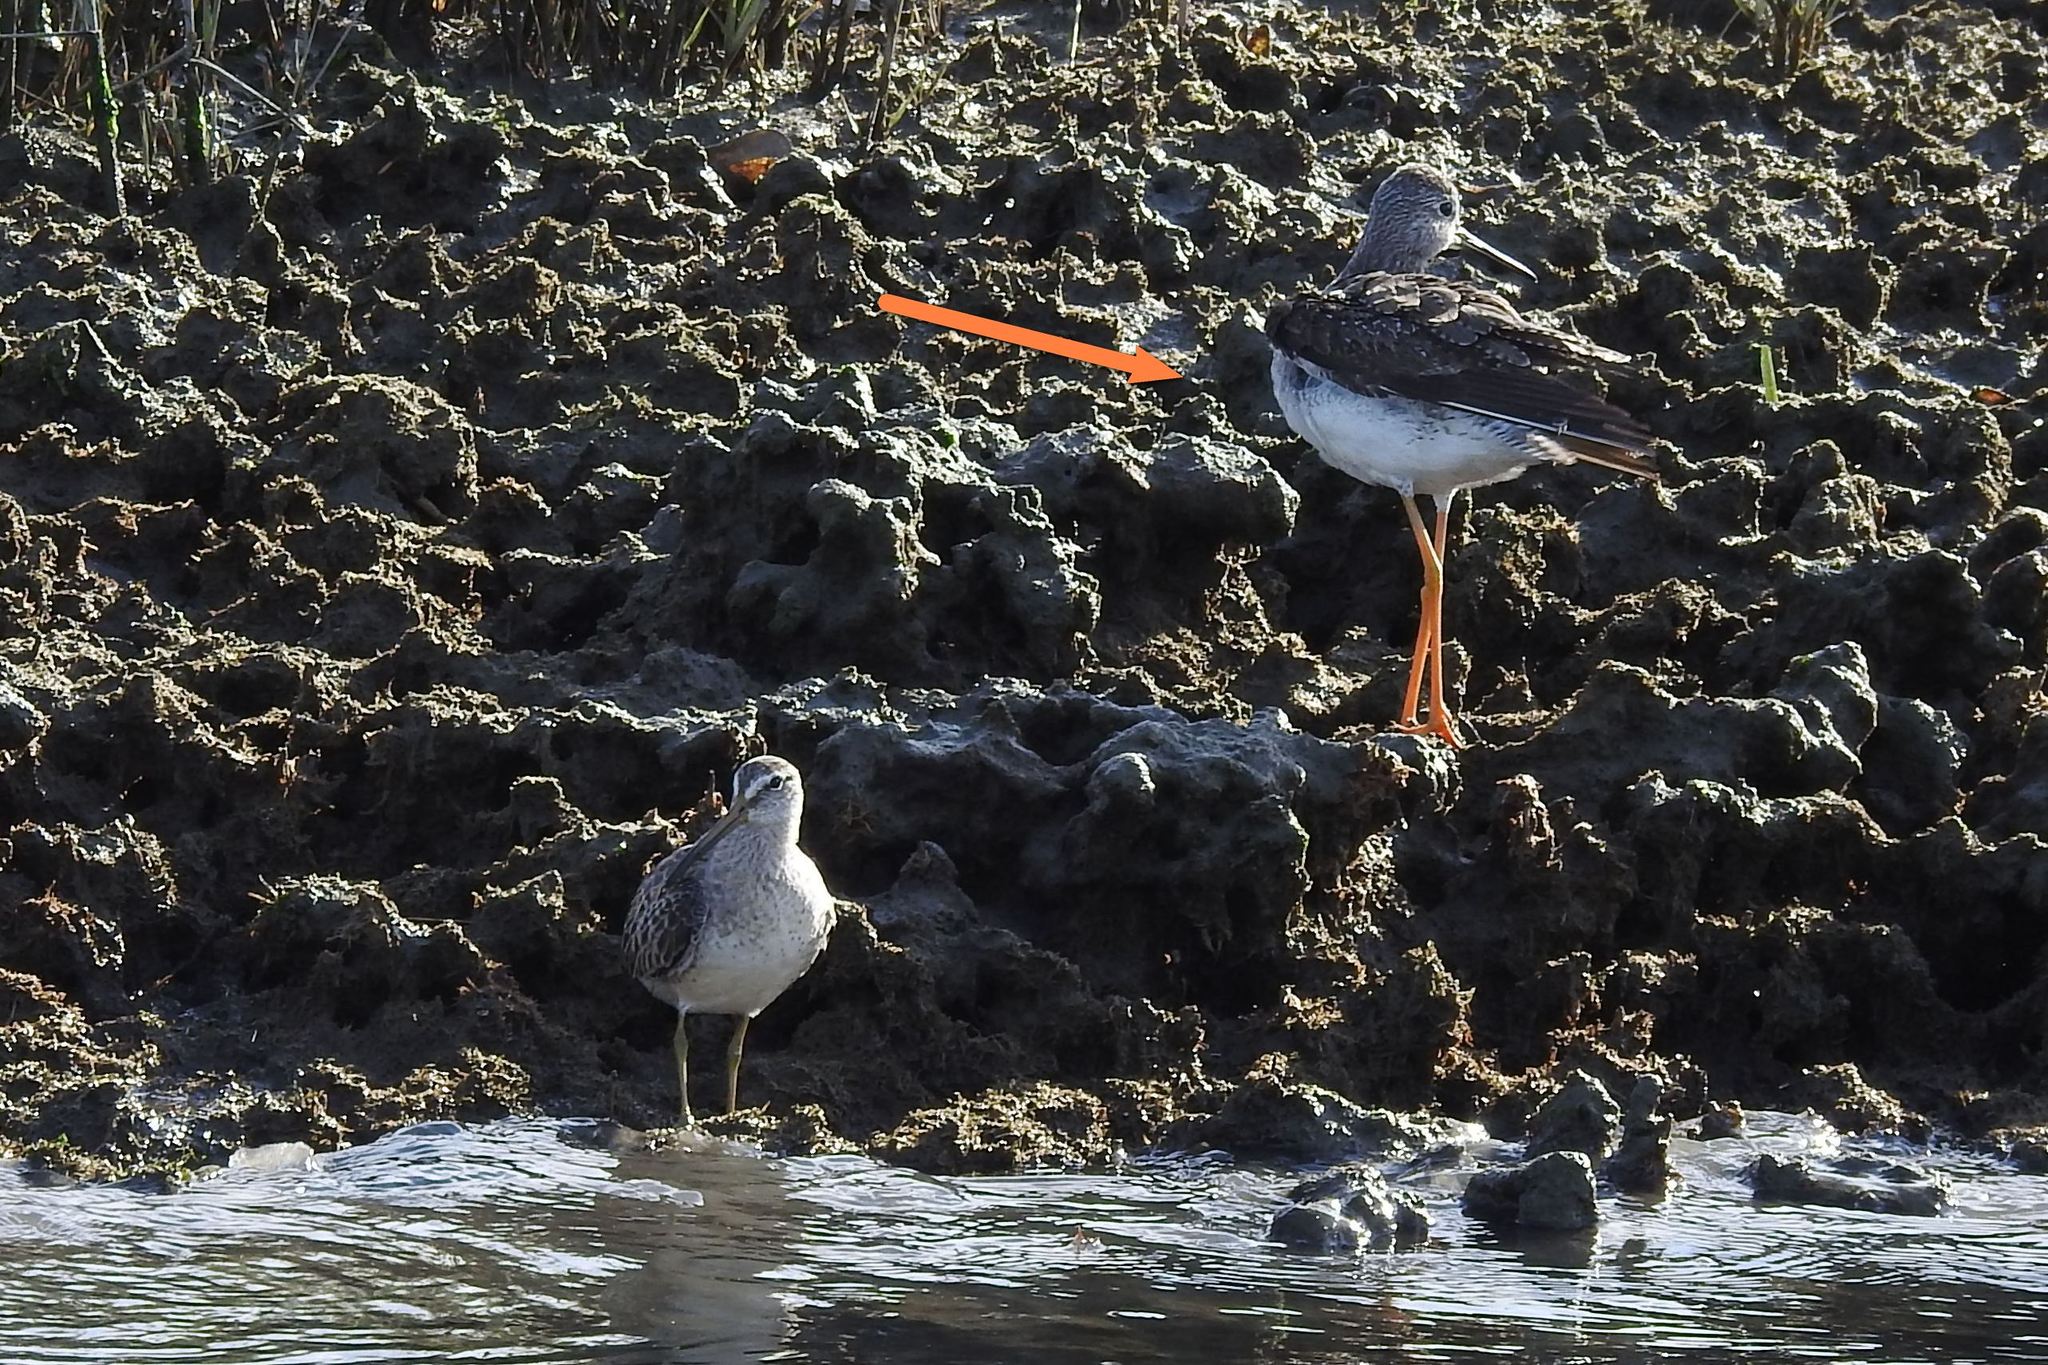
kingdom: Animalia
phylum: Chordata
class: Aves
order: Charadriiformes
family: Scolopacidae
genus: Tringa
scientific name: Tringa melanoleuca
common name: Greater yellowlegs
